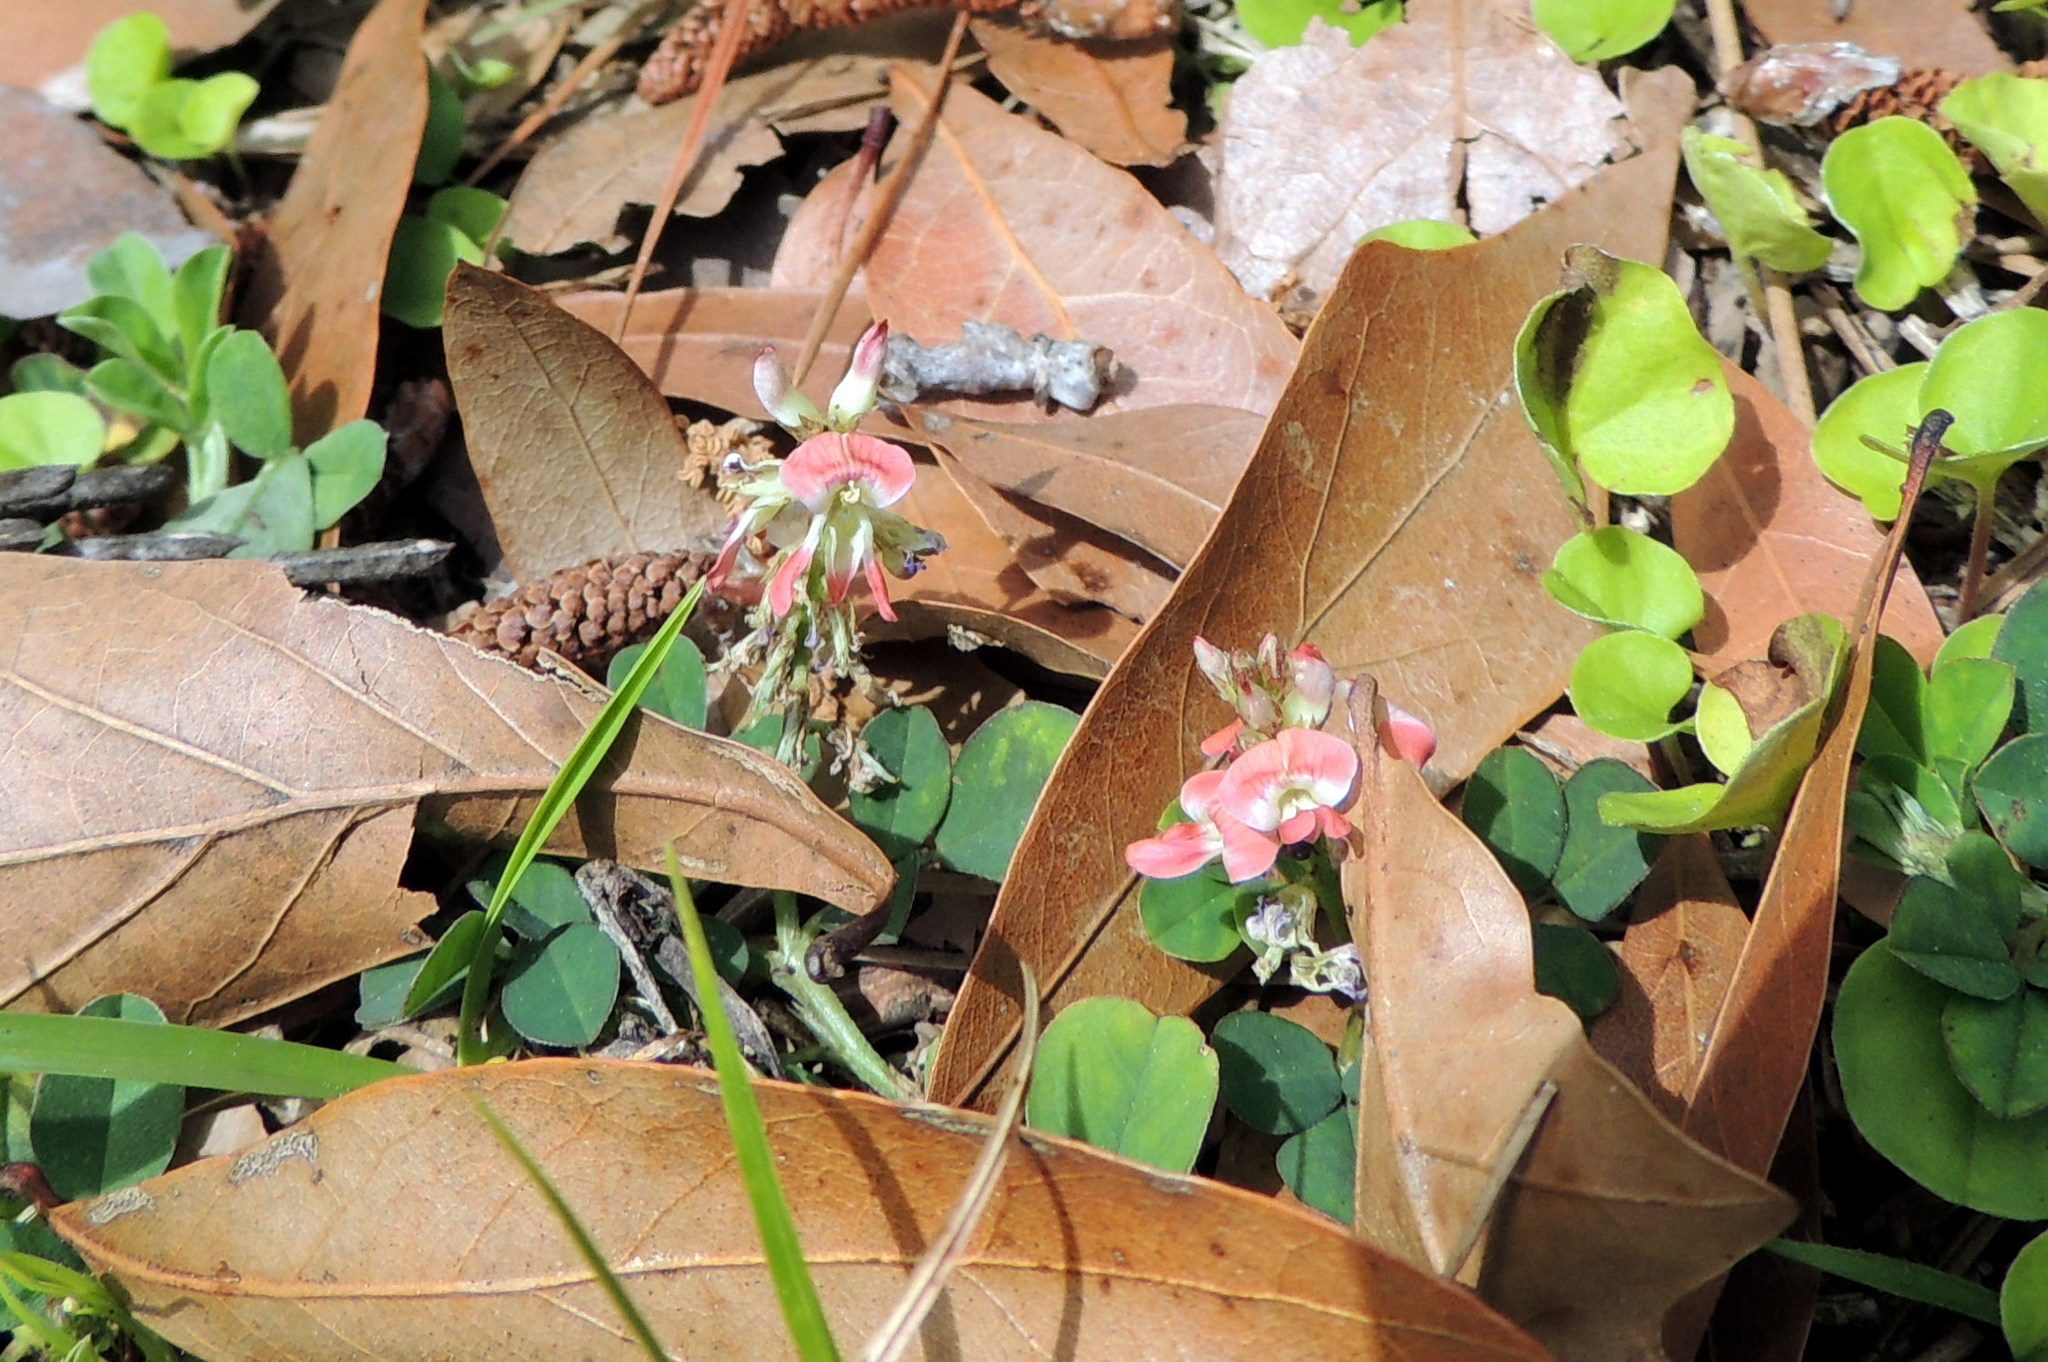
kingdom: Plantae
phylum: Tracheophyta
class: Magnoliopsida
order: Fabales
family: Fabaceae
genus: Indigofera
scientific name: Indigofera spicata
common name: Creeping indigo
